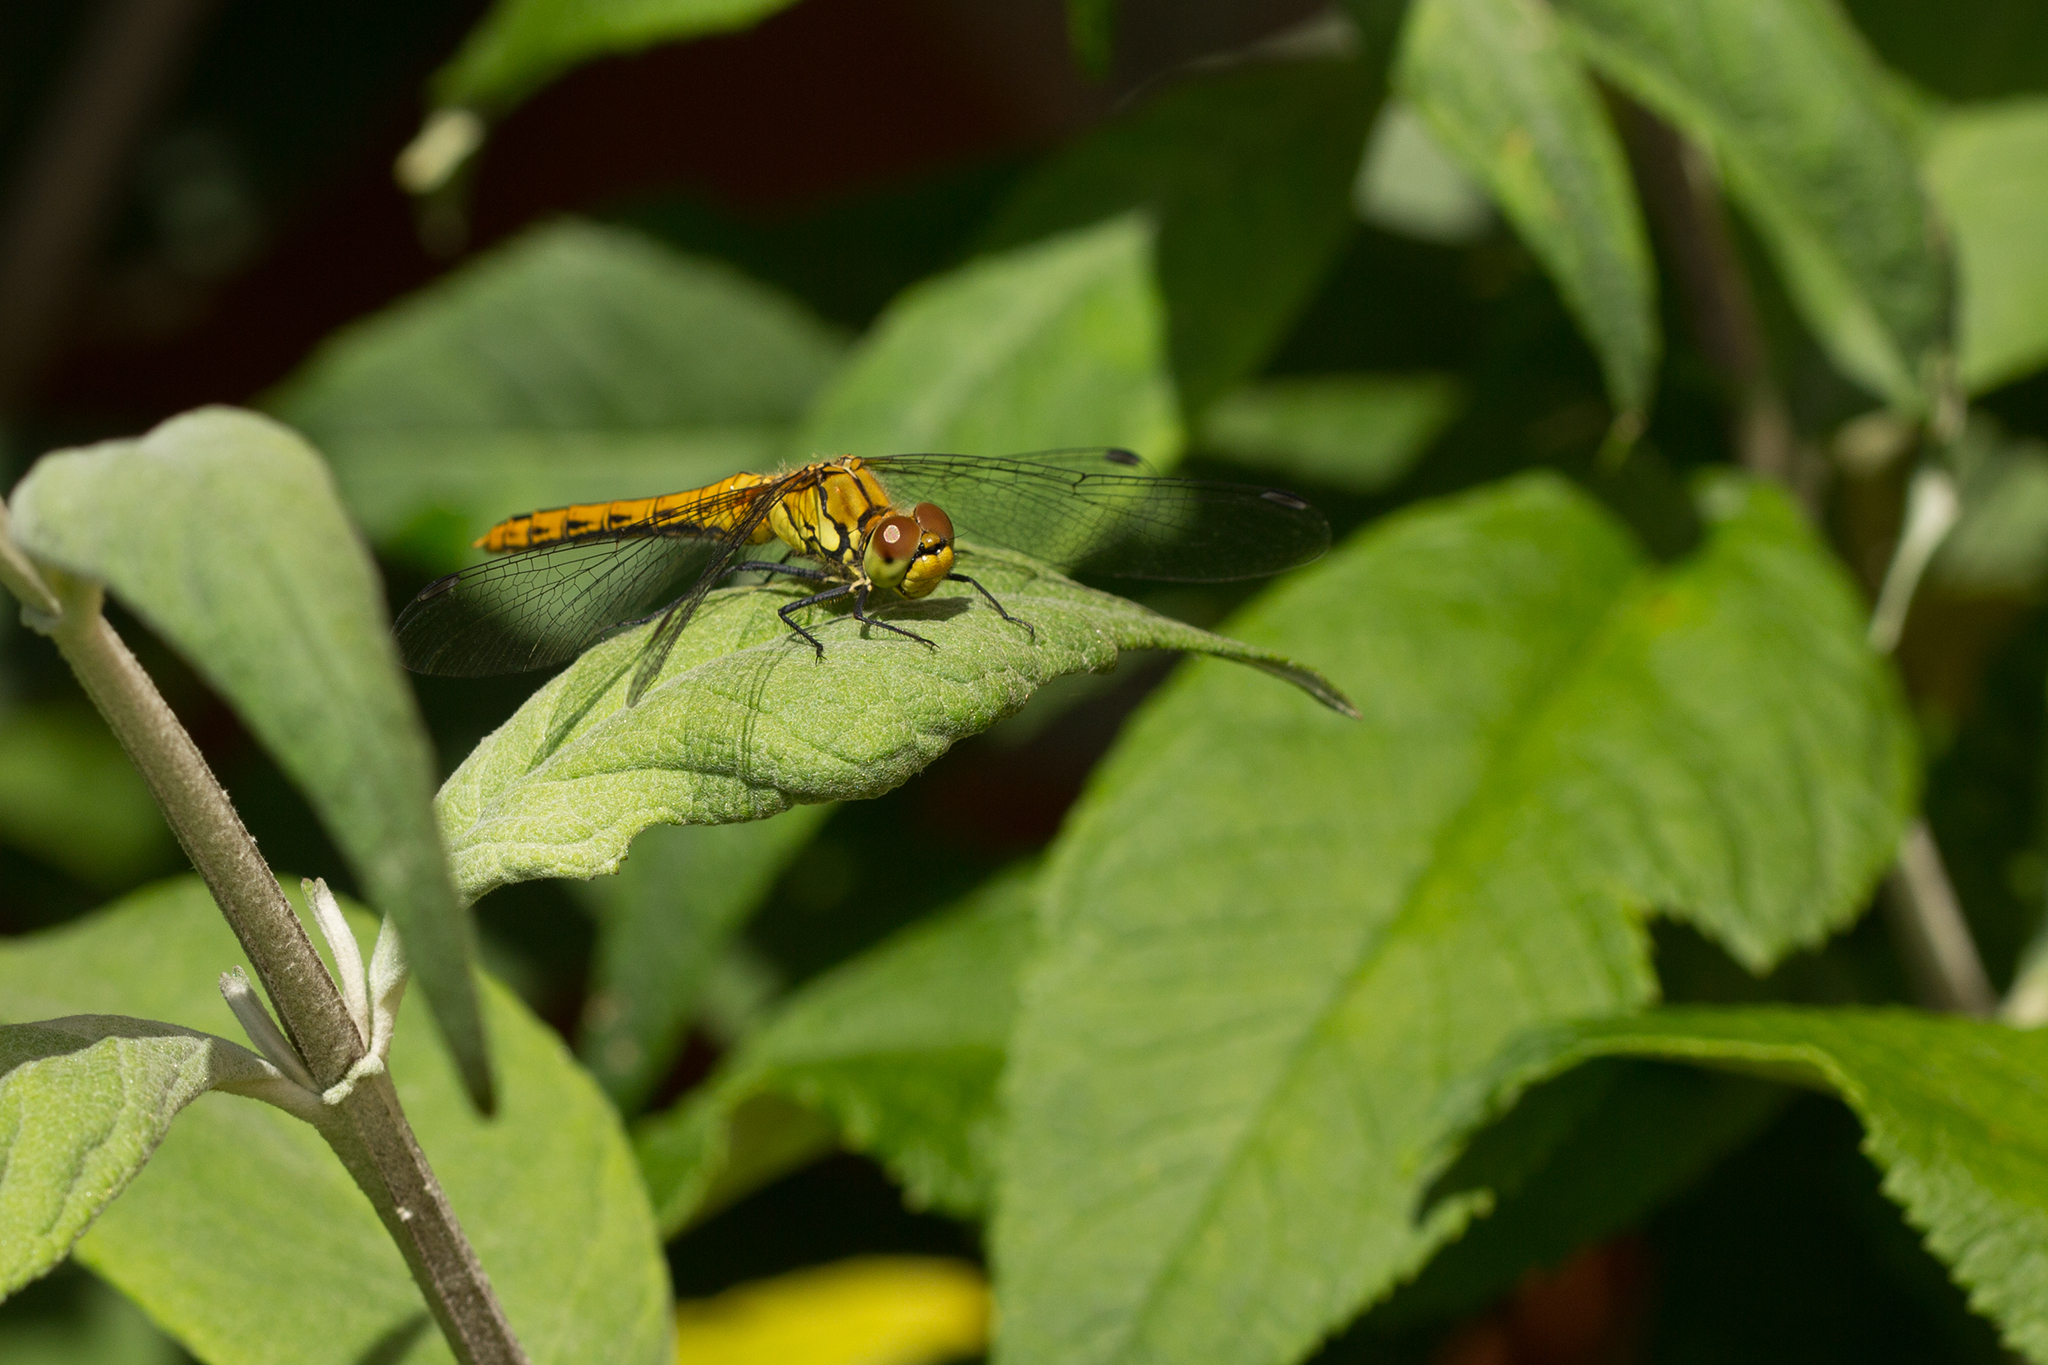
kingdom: Animalia
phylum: Arthropoda
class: Insecta
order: Odonata
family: Libellulidae
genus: Sympetrum
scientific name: Sympetrum sanguineum
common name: Ruddy darter
